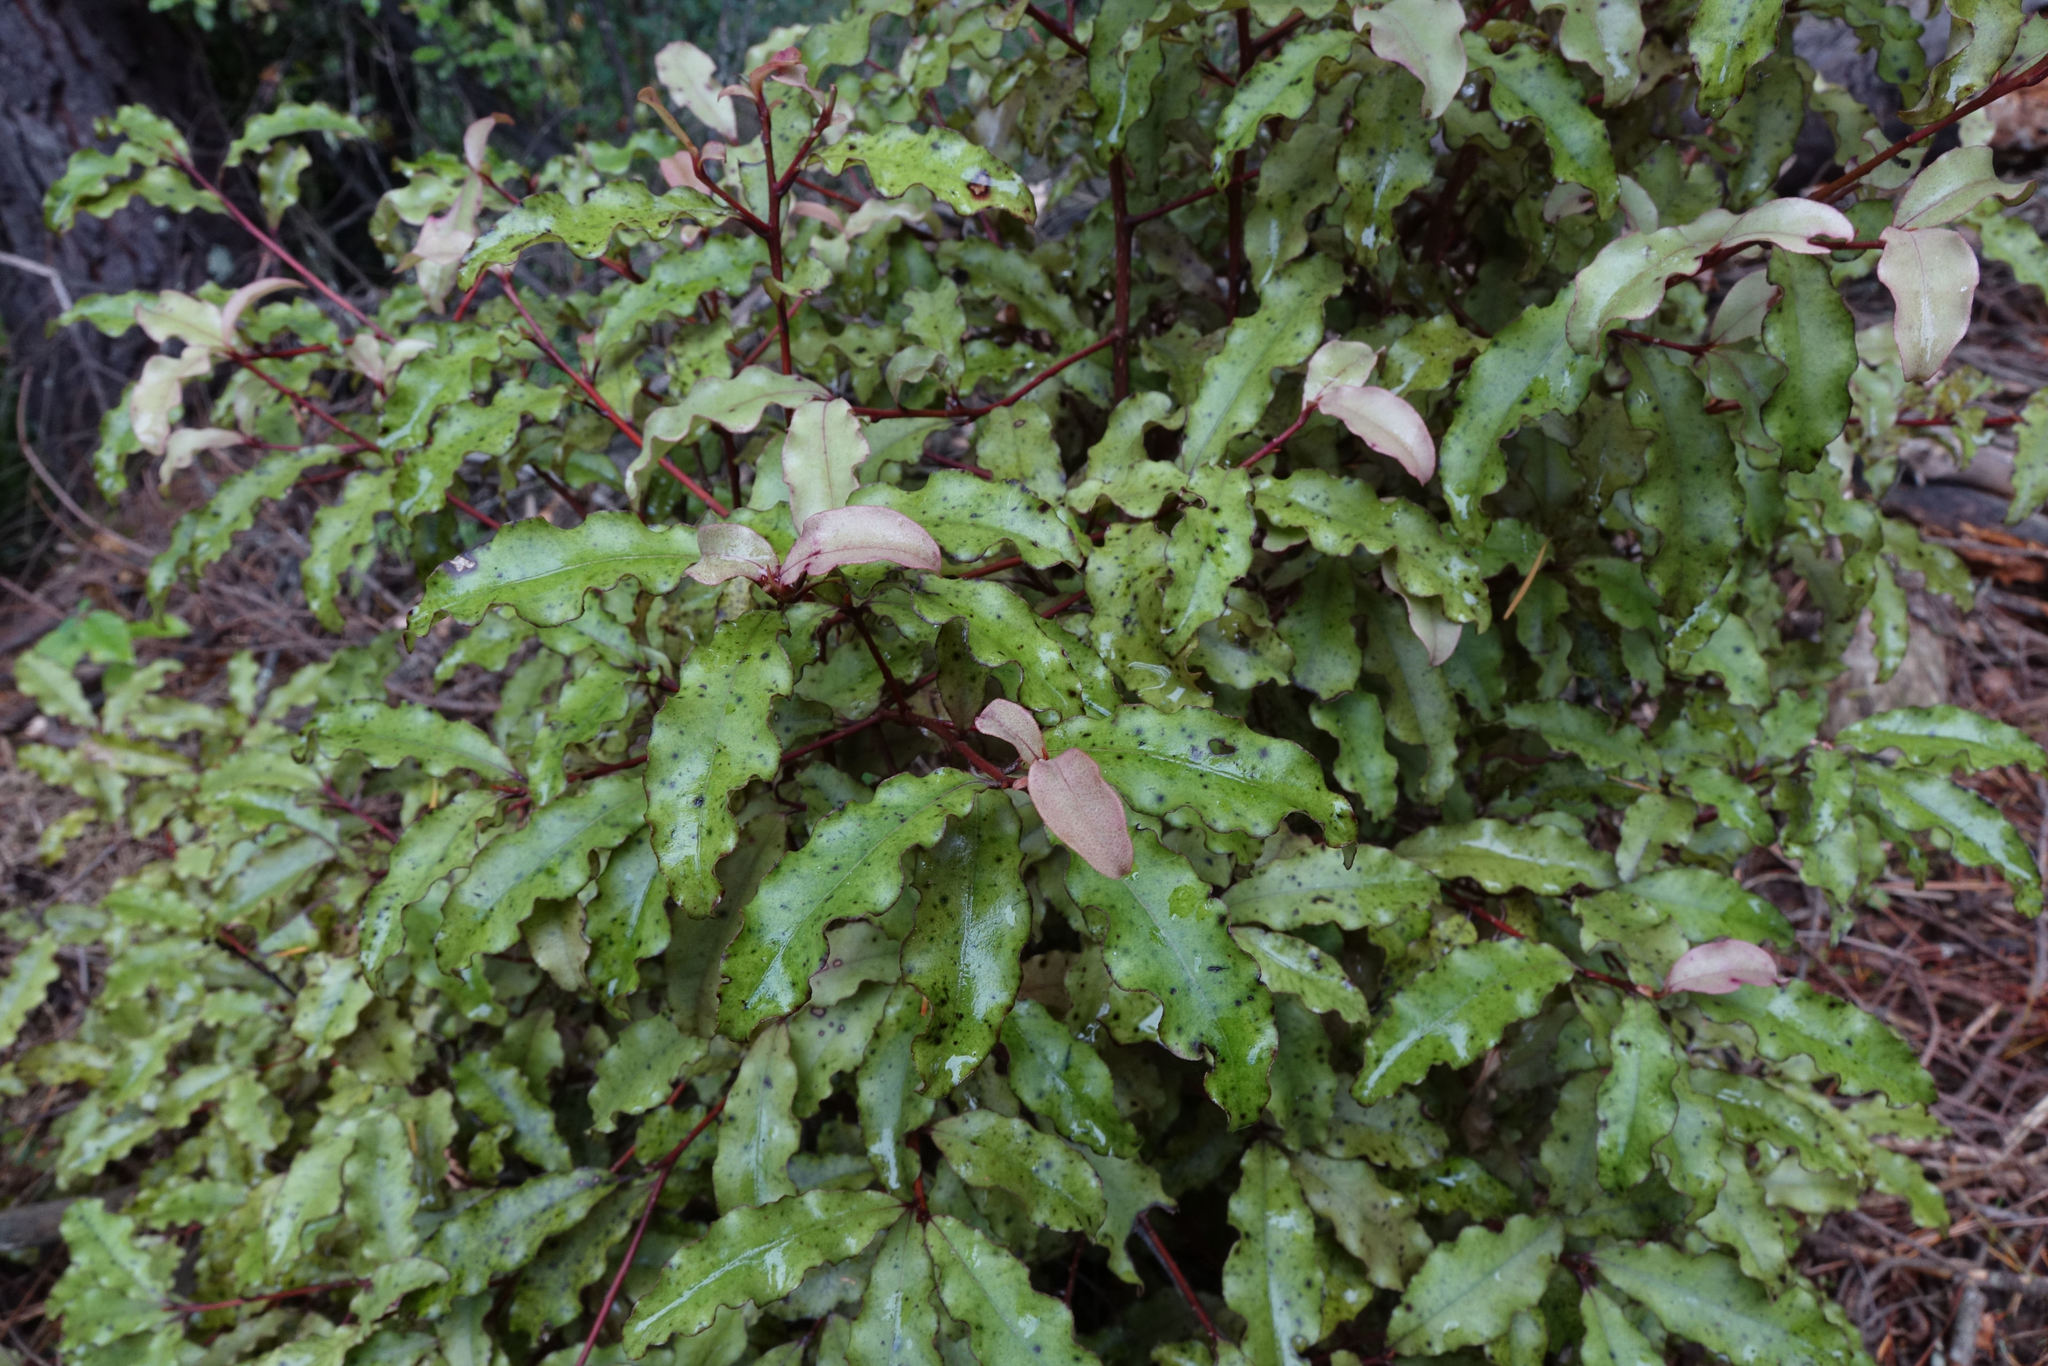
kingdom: Plantae
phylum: Tracheophyta
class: Magnoliopsida
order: Ericales
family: Primulaceae
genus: Myrsine
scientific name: Myrsine australis
